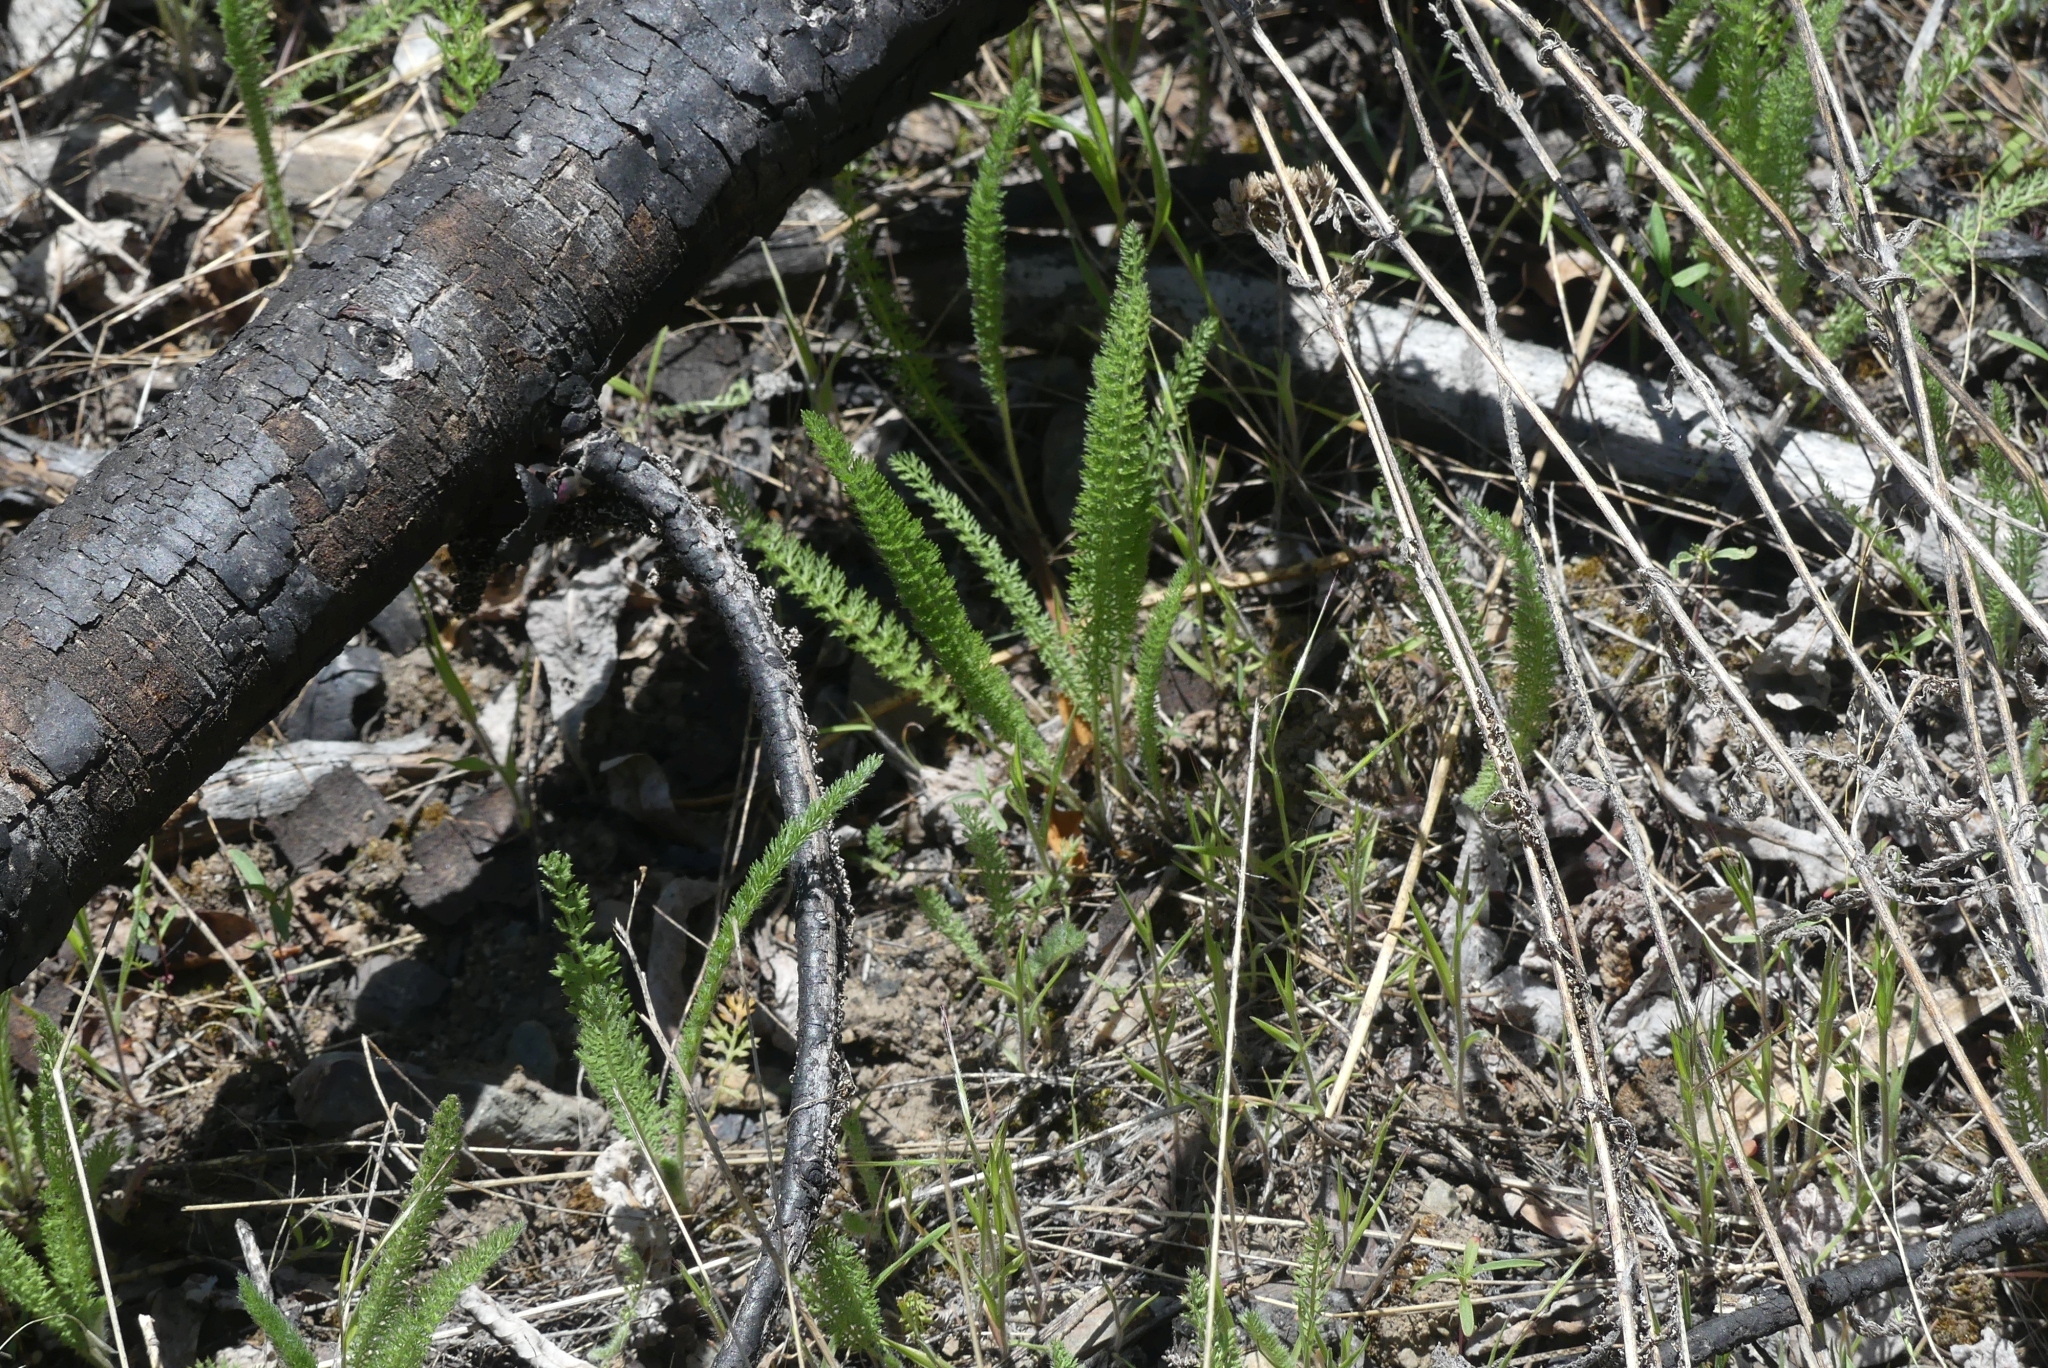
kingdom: Plantae
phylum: Tracheophyta
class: Magnoliopsida
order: Asterales
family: Asteraceae
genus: Achillea
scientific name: Achillea millefolium
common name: Yarrow
